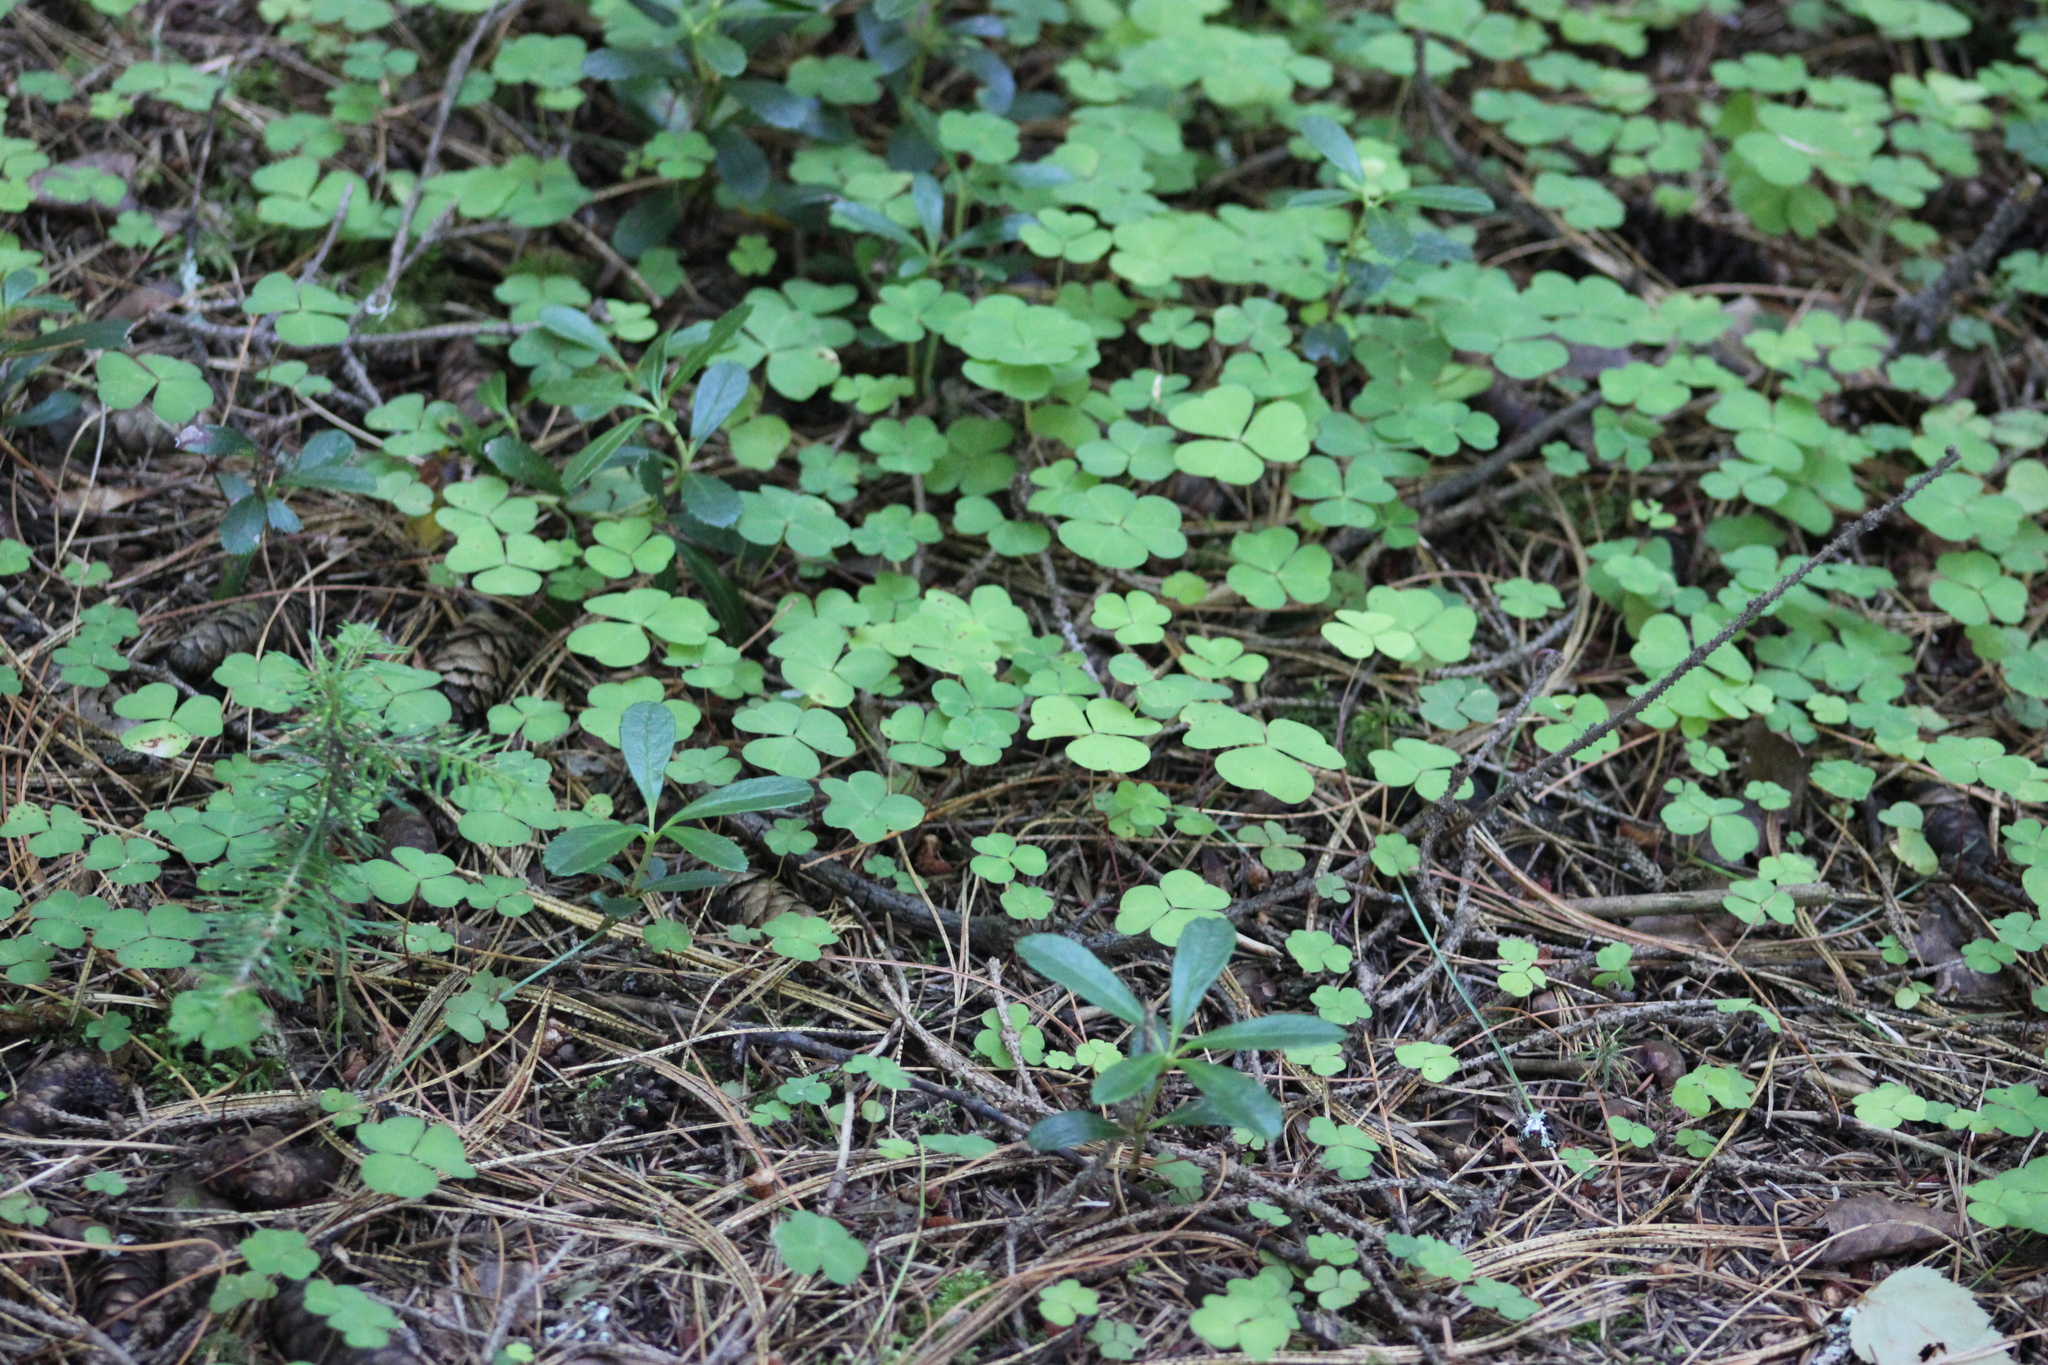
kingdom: Plantae
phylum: Tracheophyta
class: Magnoliopsida
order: Ericales
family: Ericaceae
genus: Chimaphila
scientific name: Chimaphila umbellata
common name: Pipsissewa
